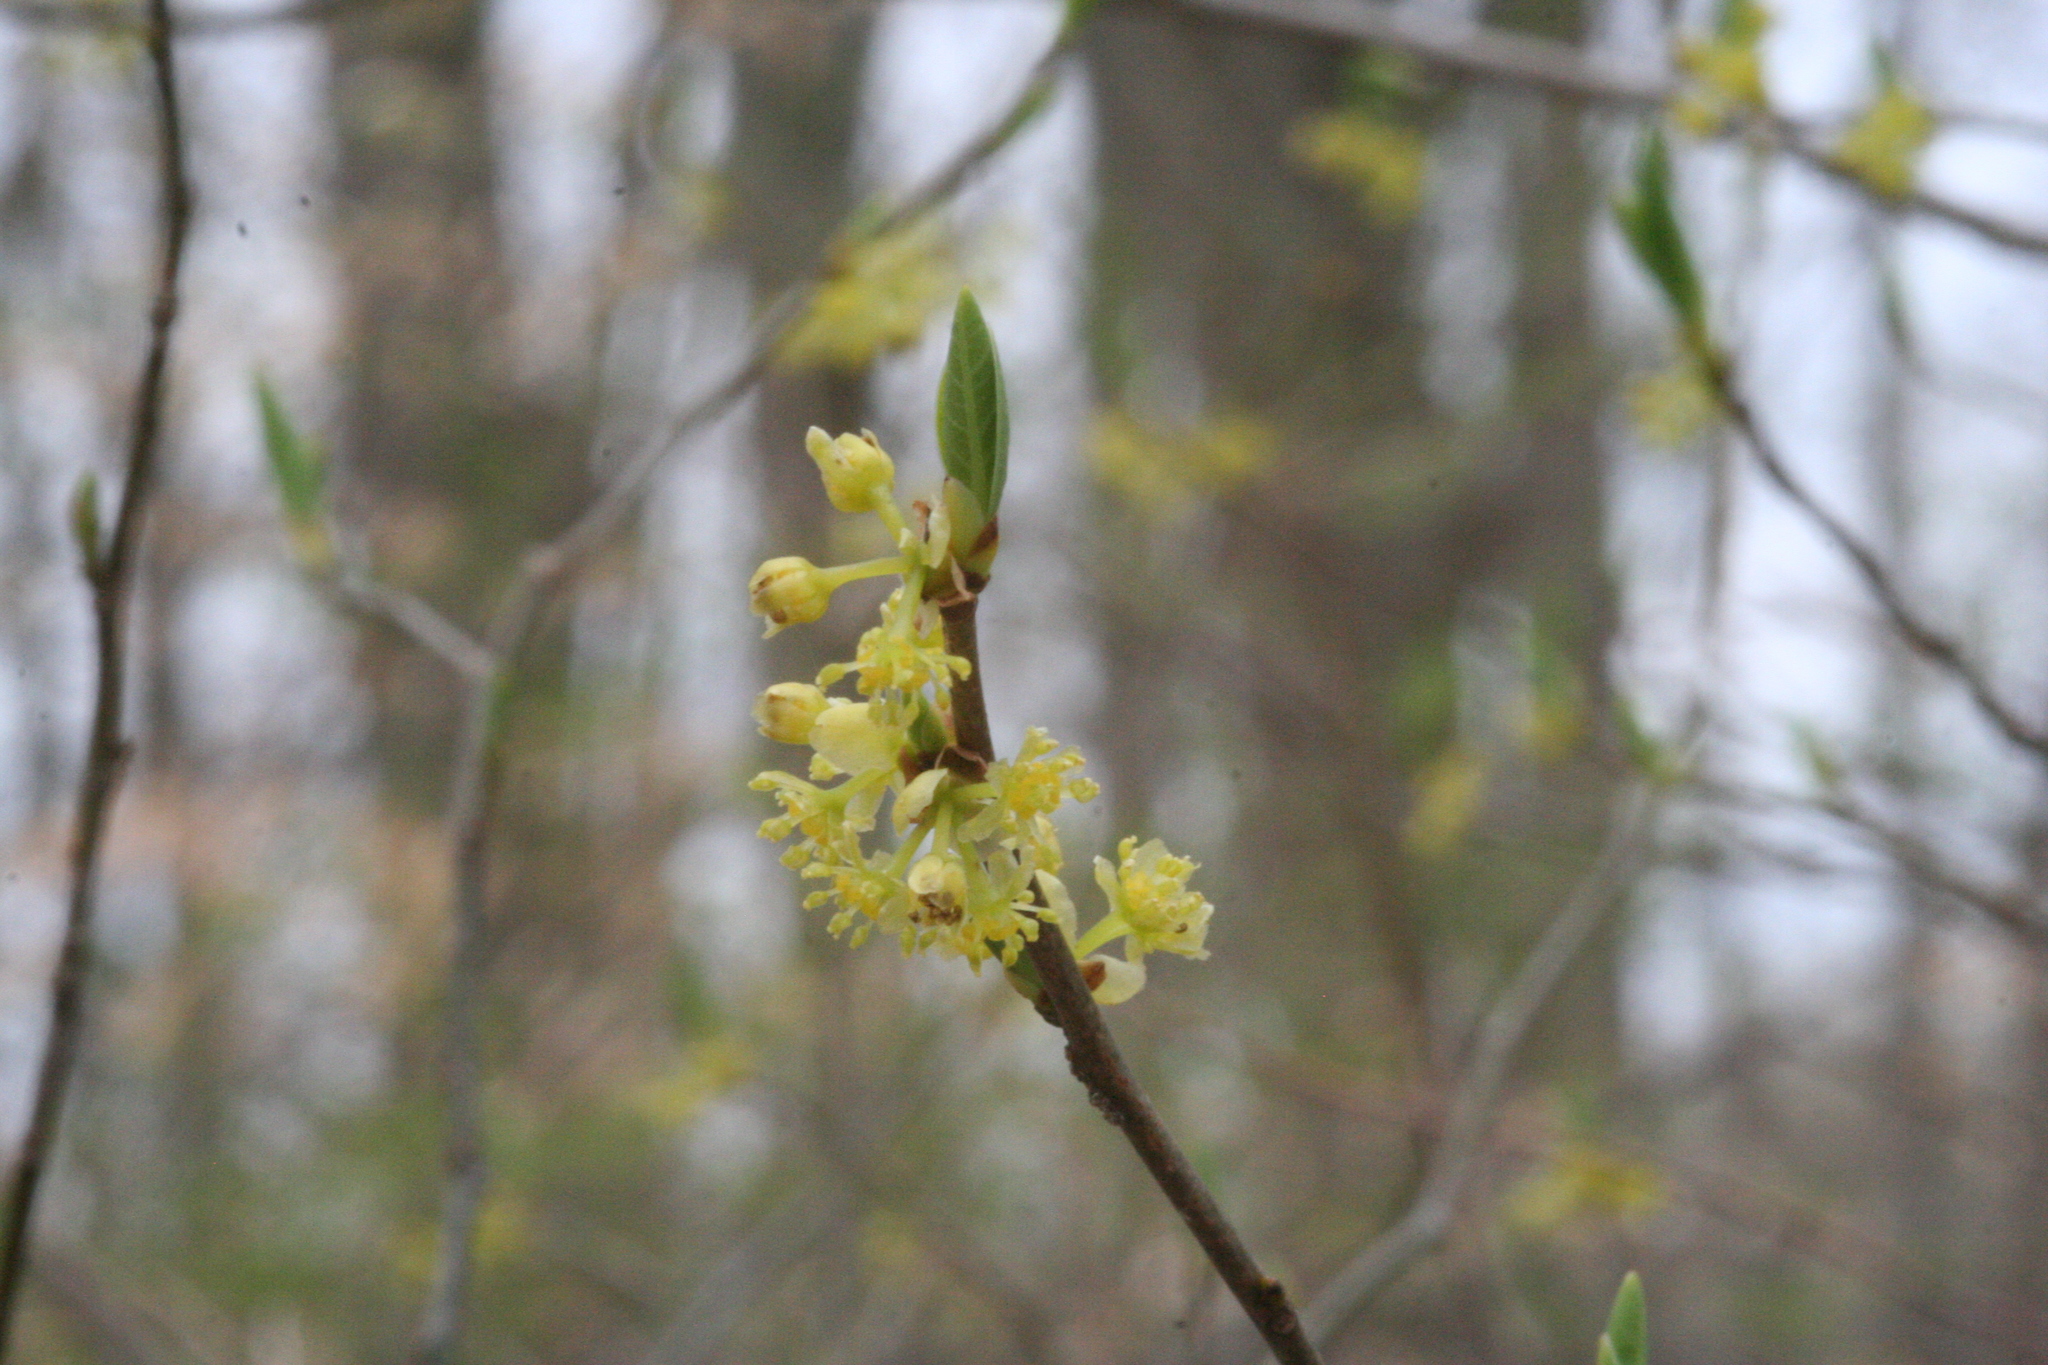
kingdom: Plantae
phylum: Tracheophyta
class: Magnoliopsida
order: Laurales
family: Lauraceae
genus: Lindera
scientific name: Lindera benzoin
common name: Spicebush
